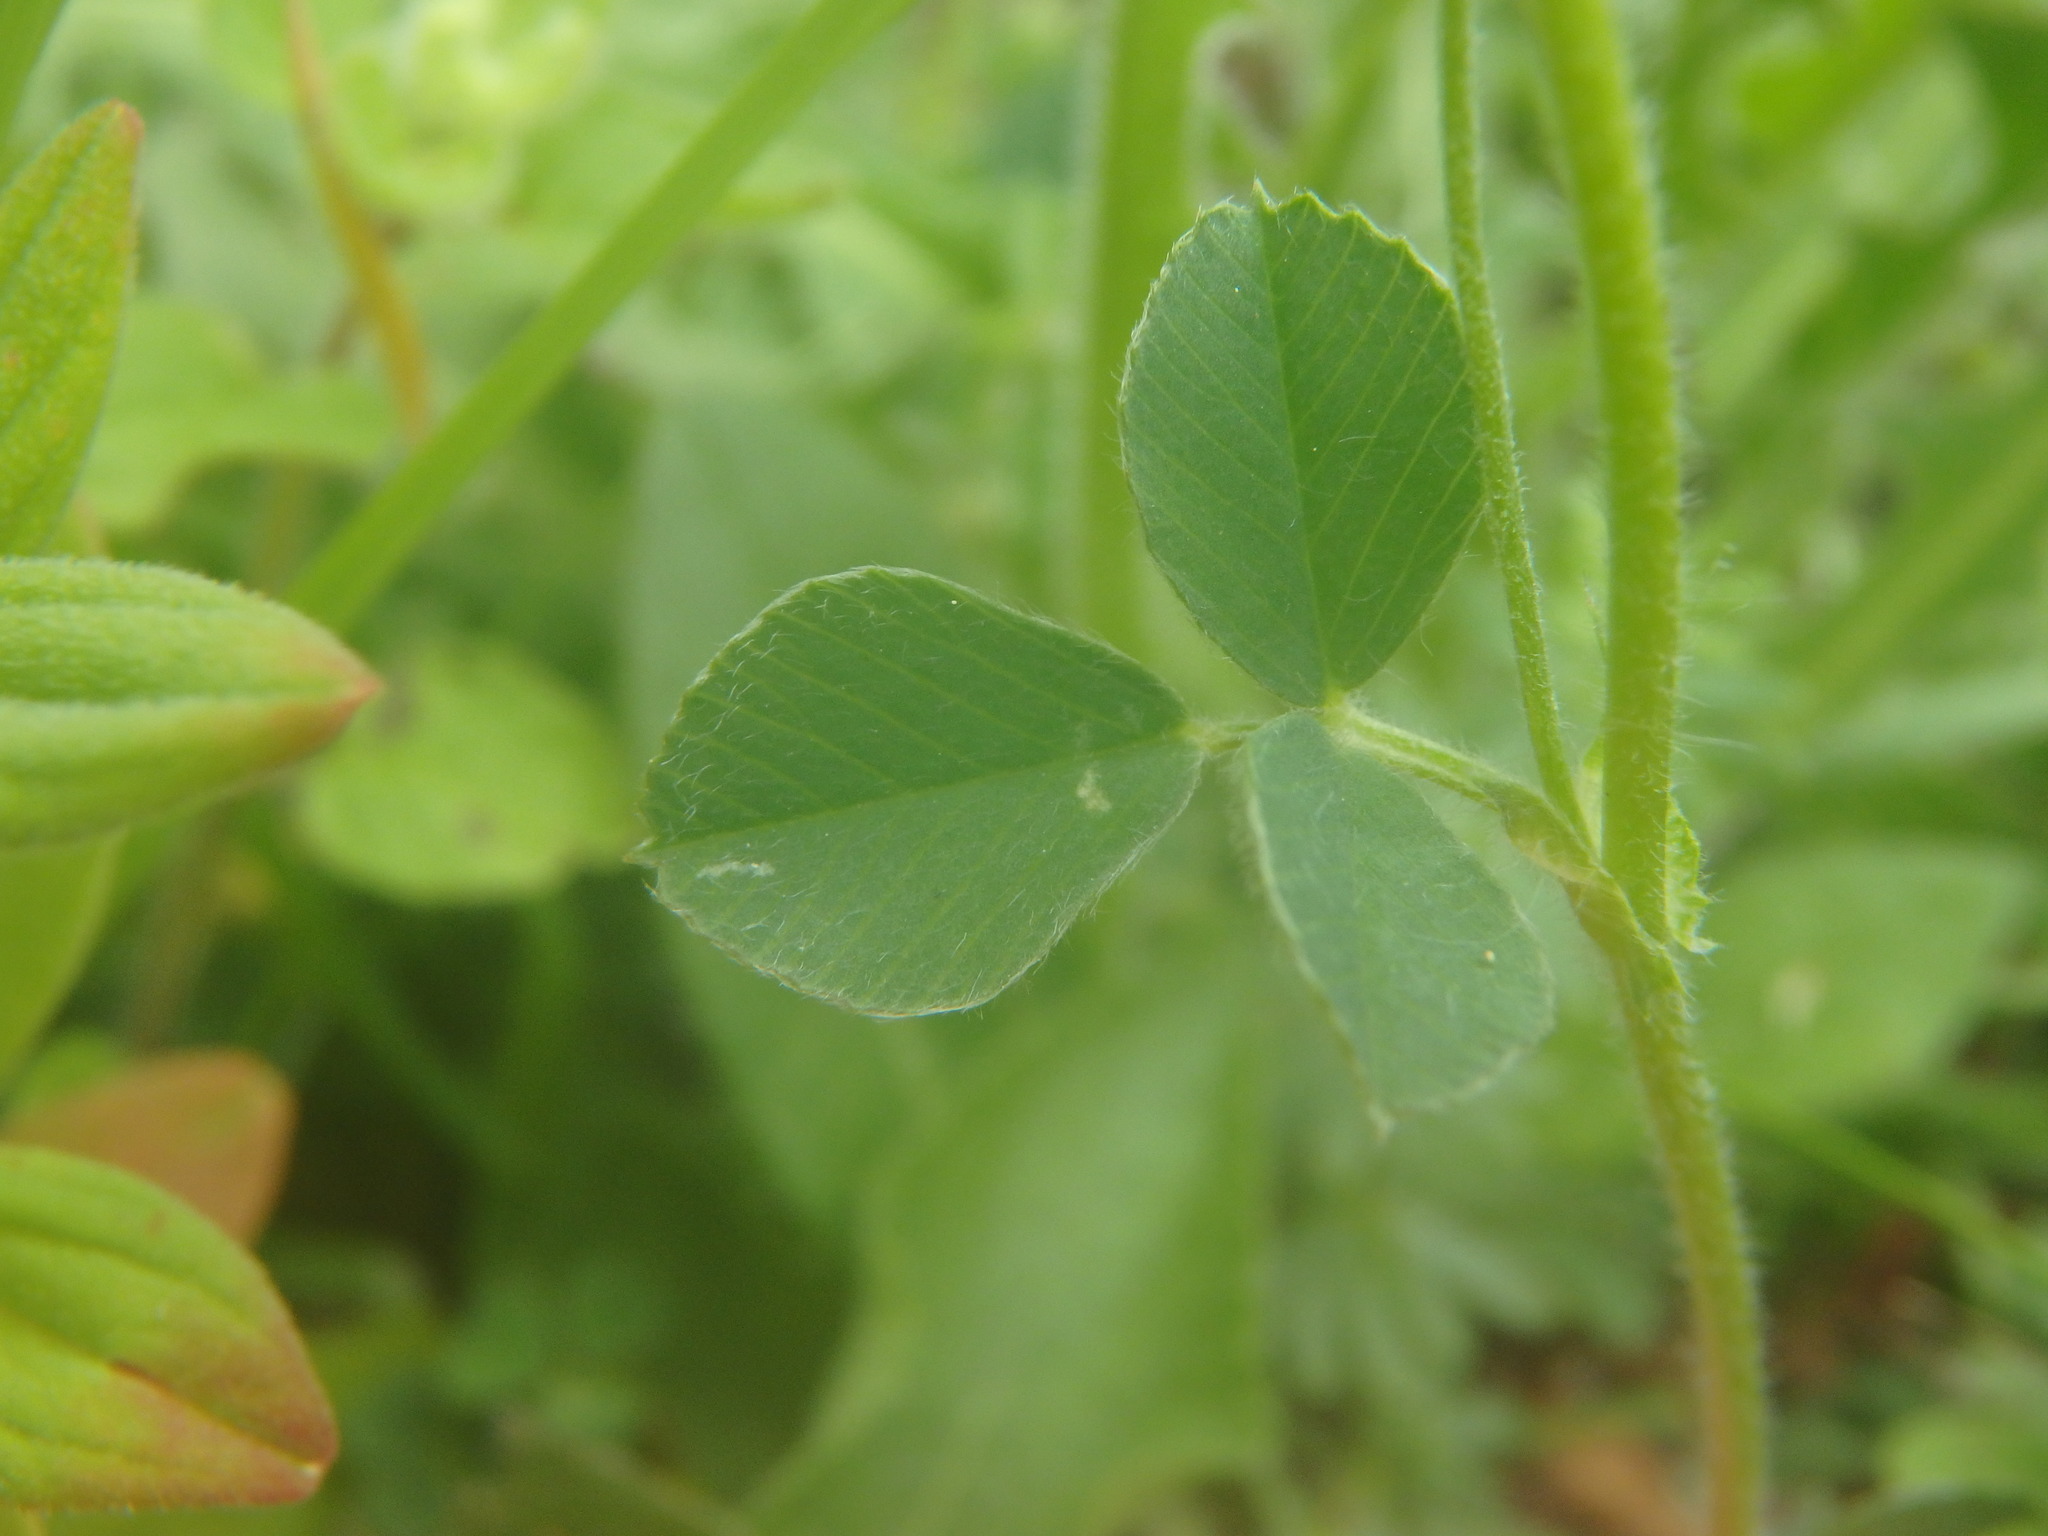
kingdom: Plantae
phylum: Tracheophyta
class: Magnoliopsida
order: Fabales
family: Fabaceae
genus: Medicago
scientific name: Medicago lupulina
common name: Black medick
